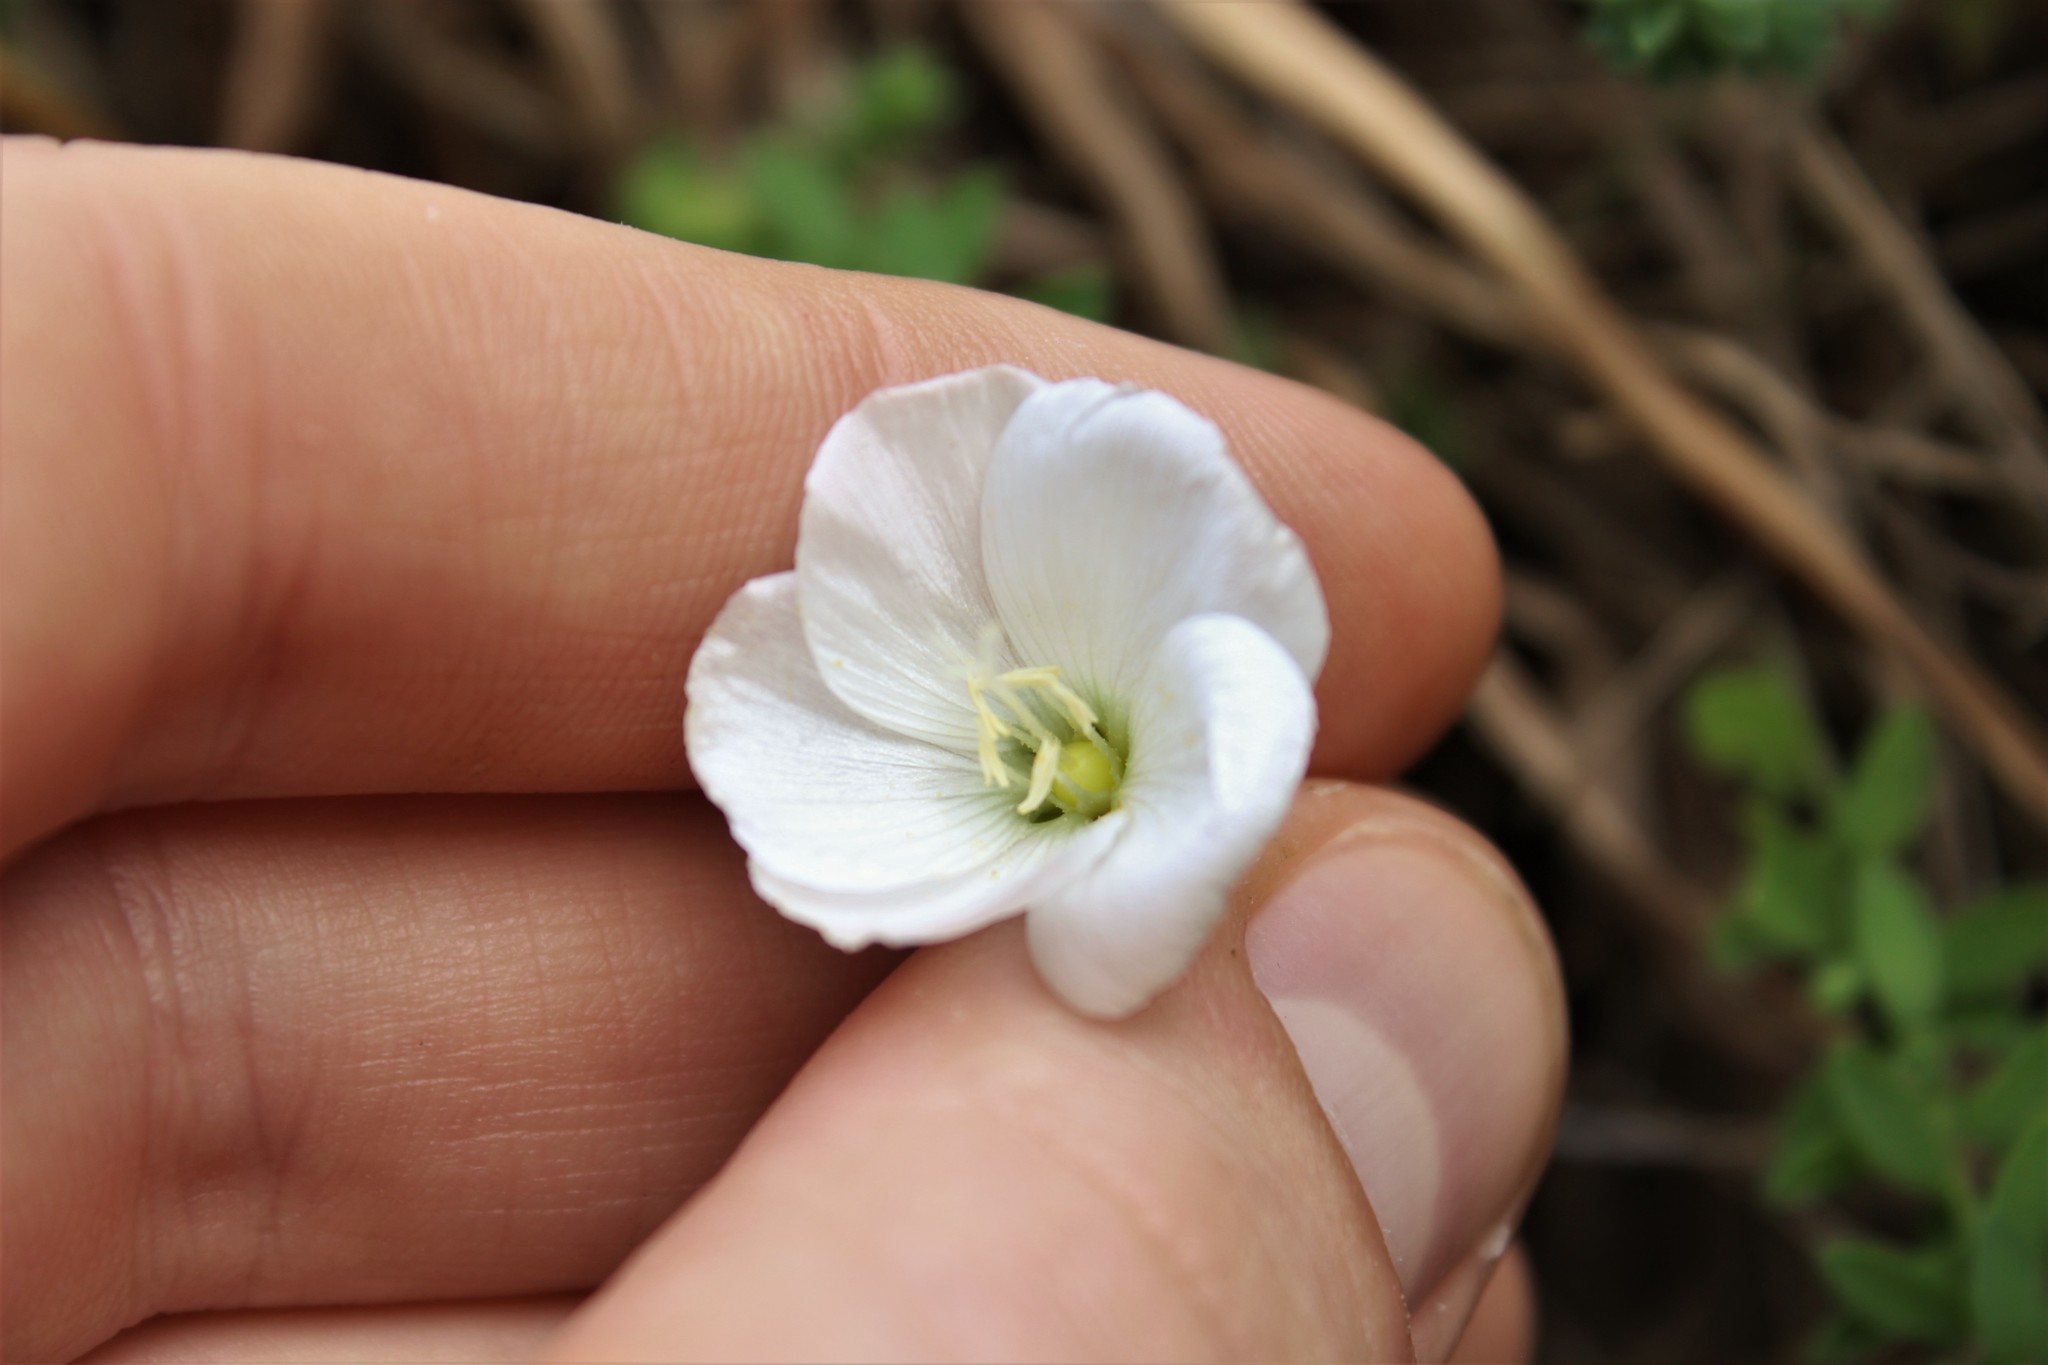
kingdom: Plantae
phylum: Tracheophyta
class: Magnoliopsida
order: Malpighiales
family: Linaceae
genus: Linum
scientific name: Linum monogynum
